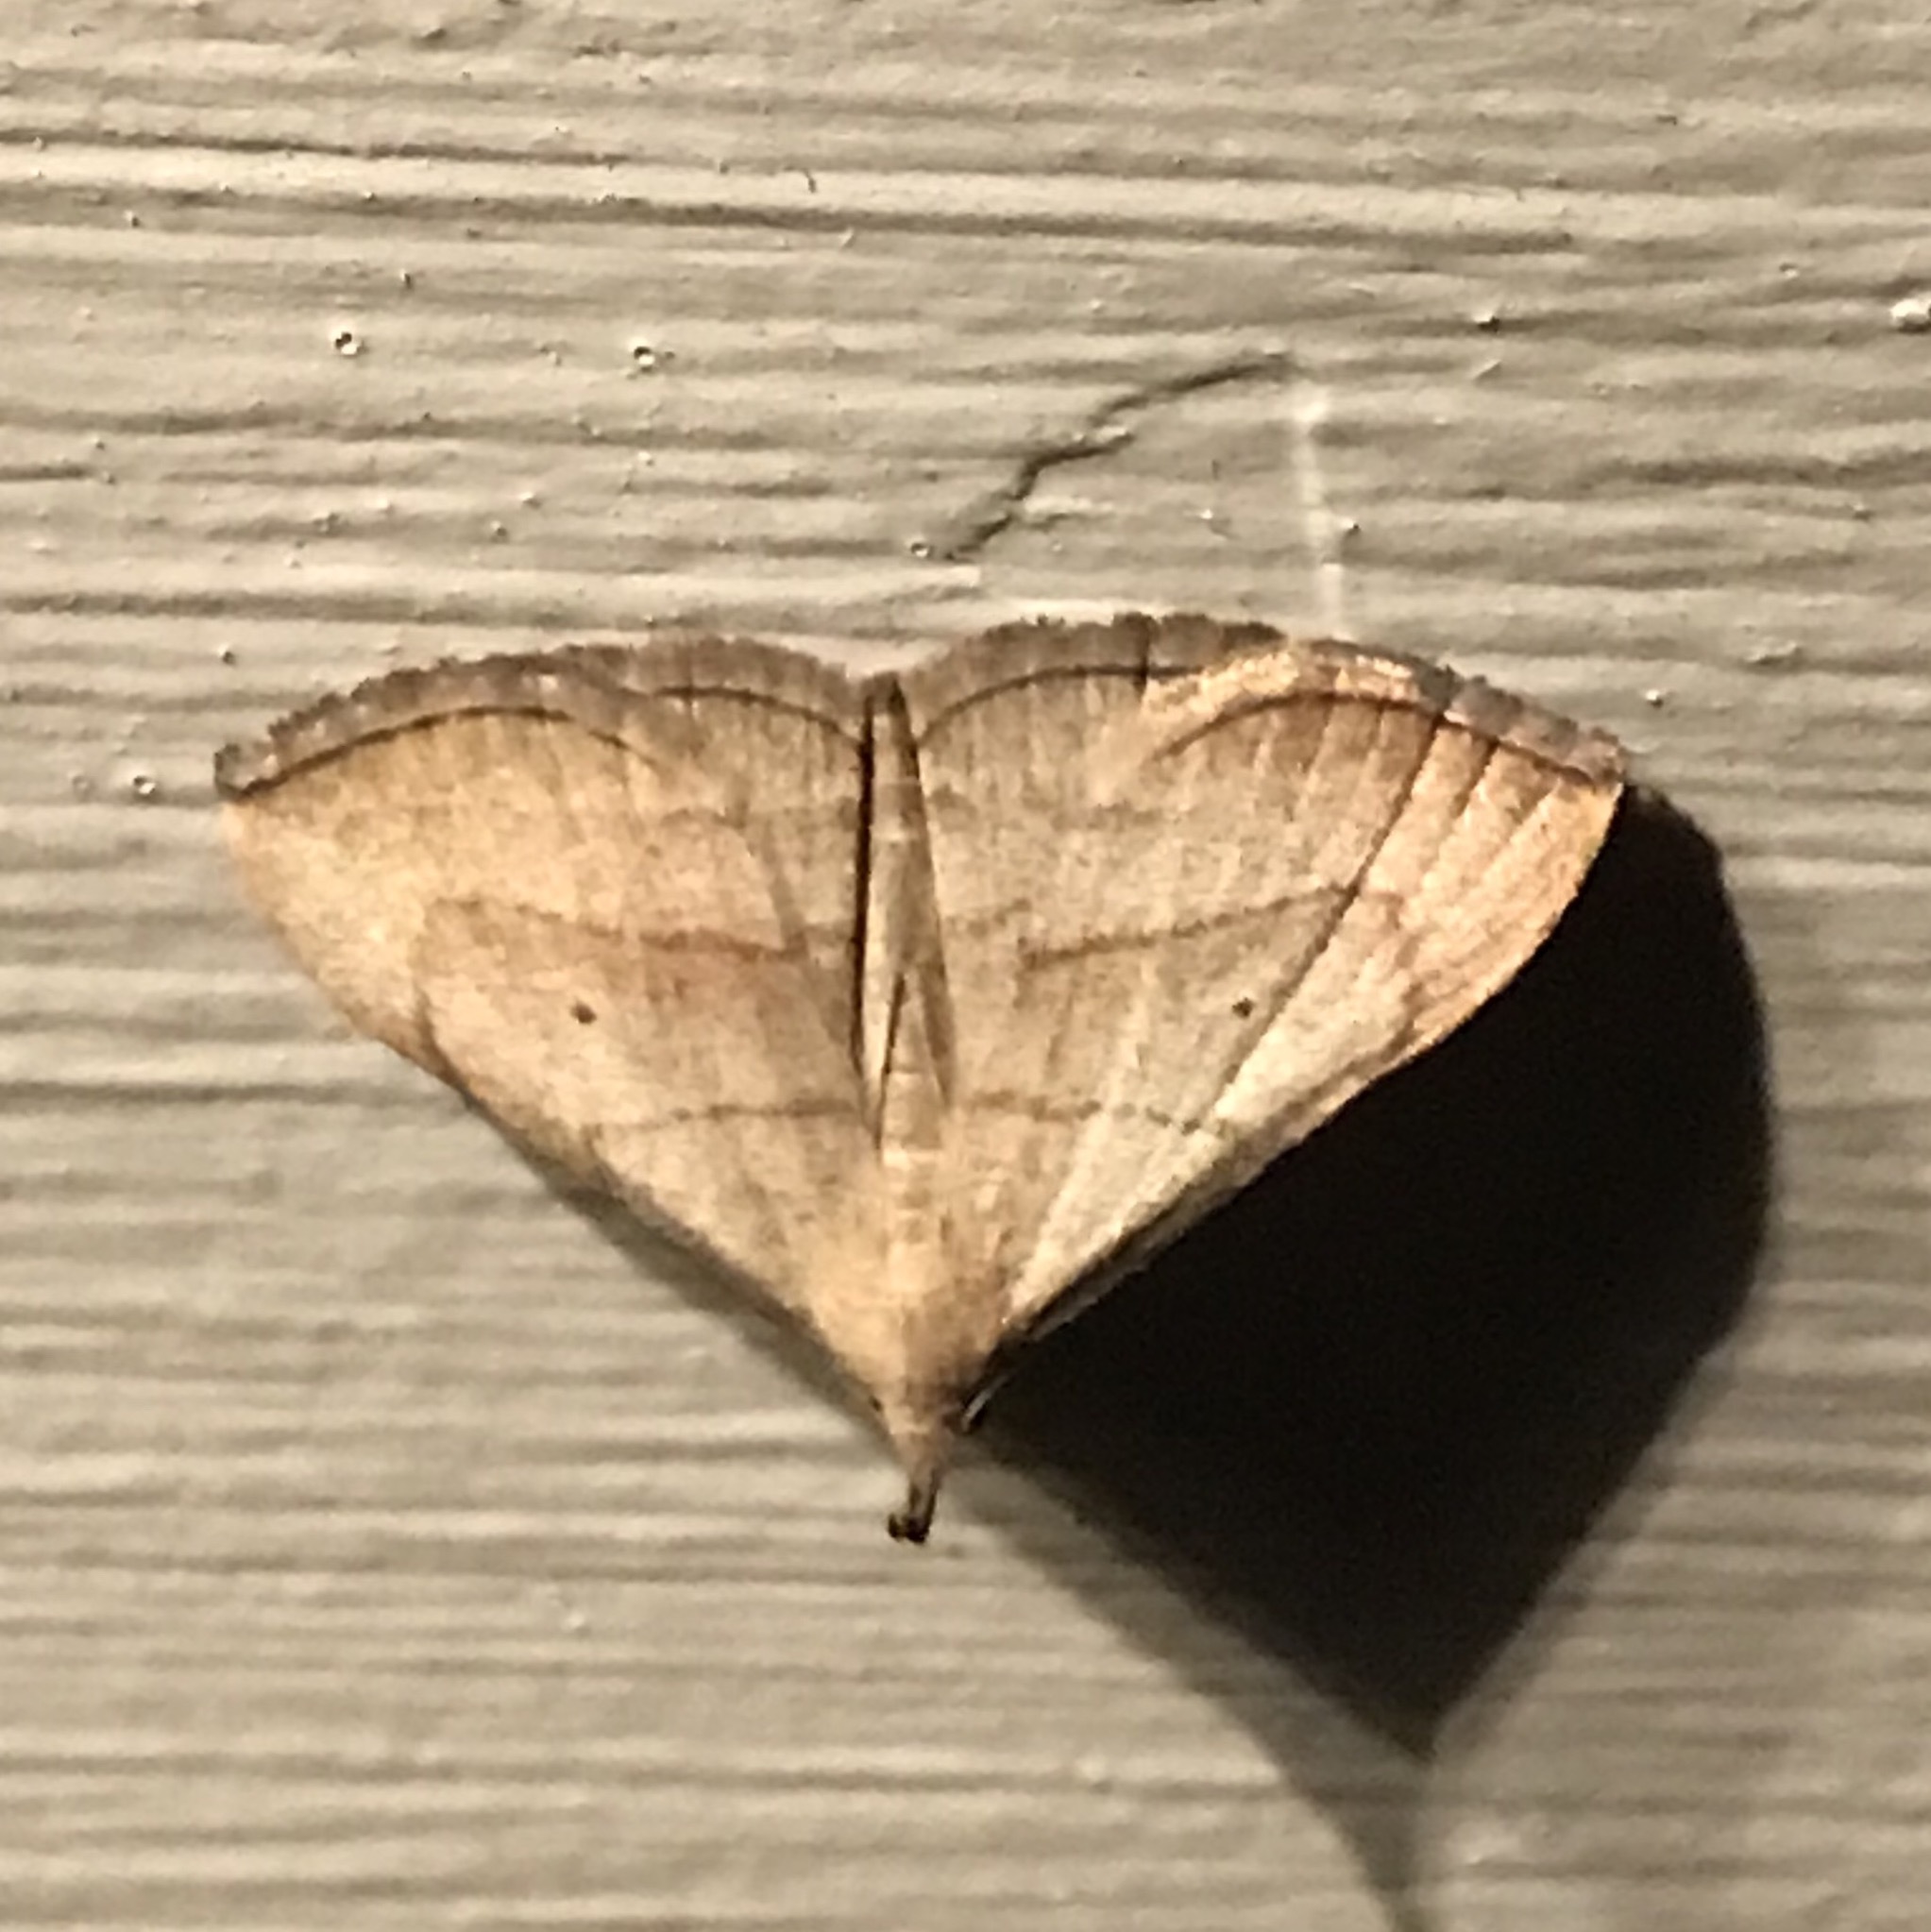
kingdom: Animalia
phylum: Arthropoda
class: Insecta
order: Lepidoptera
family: Erebidae
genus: Macrochilo
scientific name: Macrochilo litophora
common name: Brown-lined owlet
